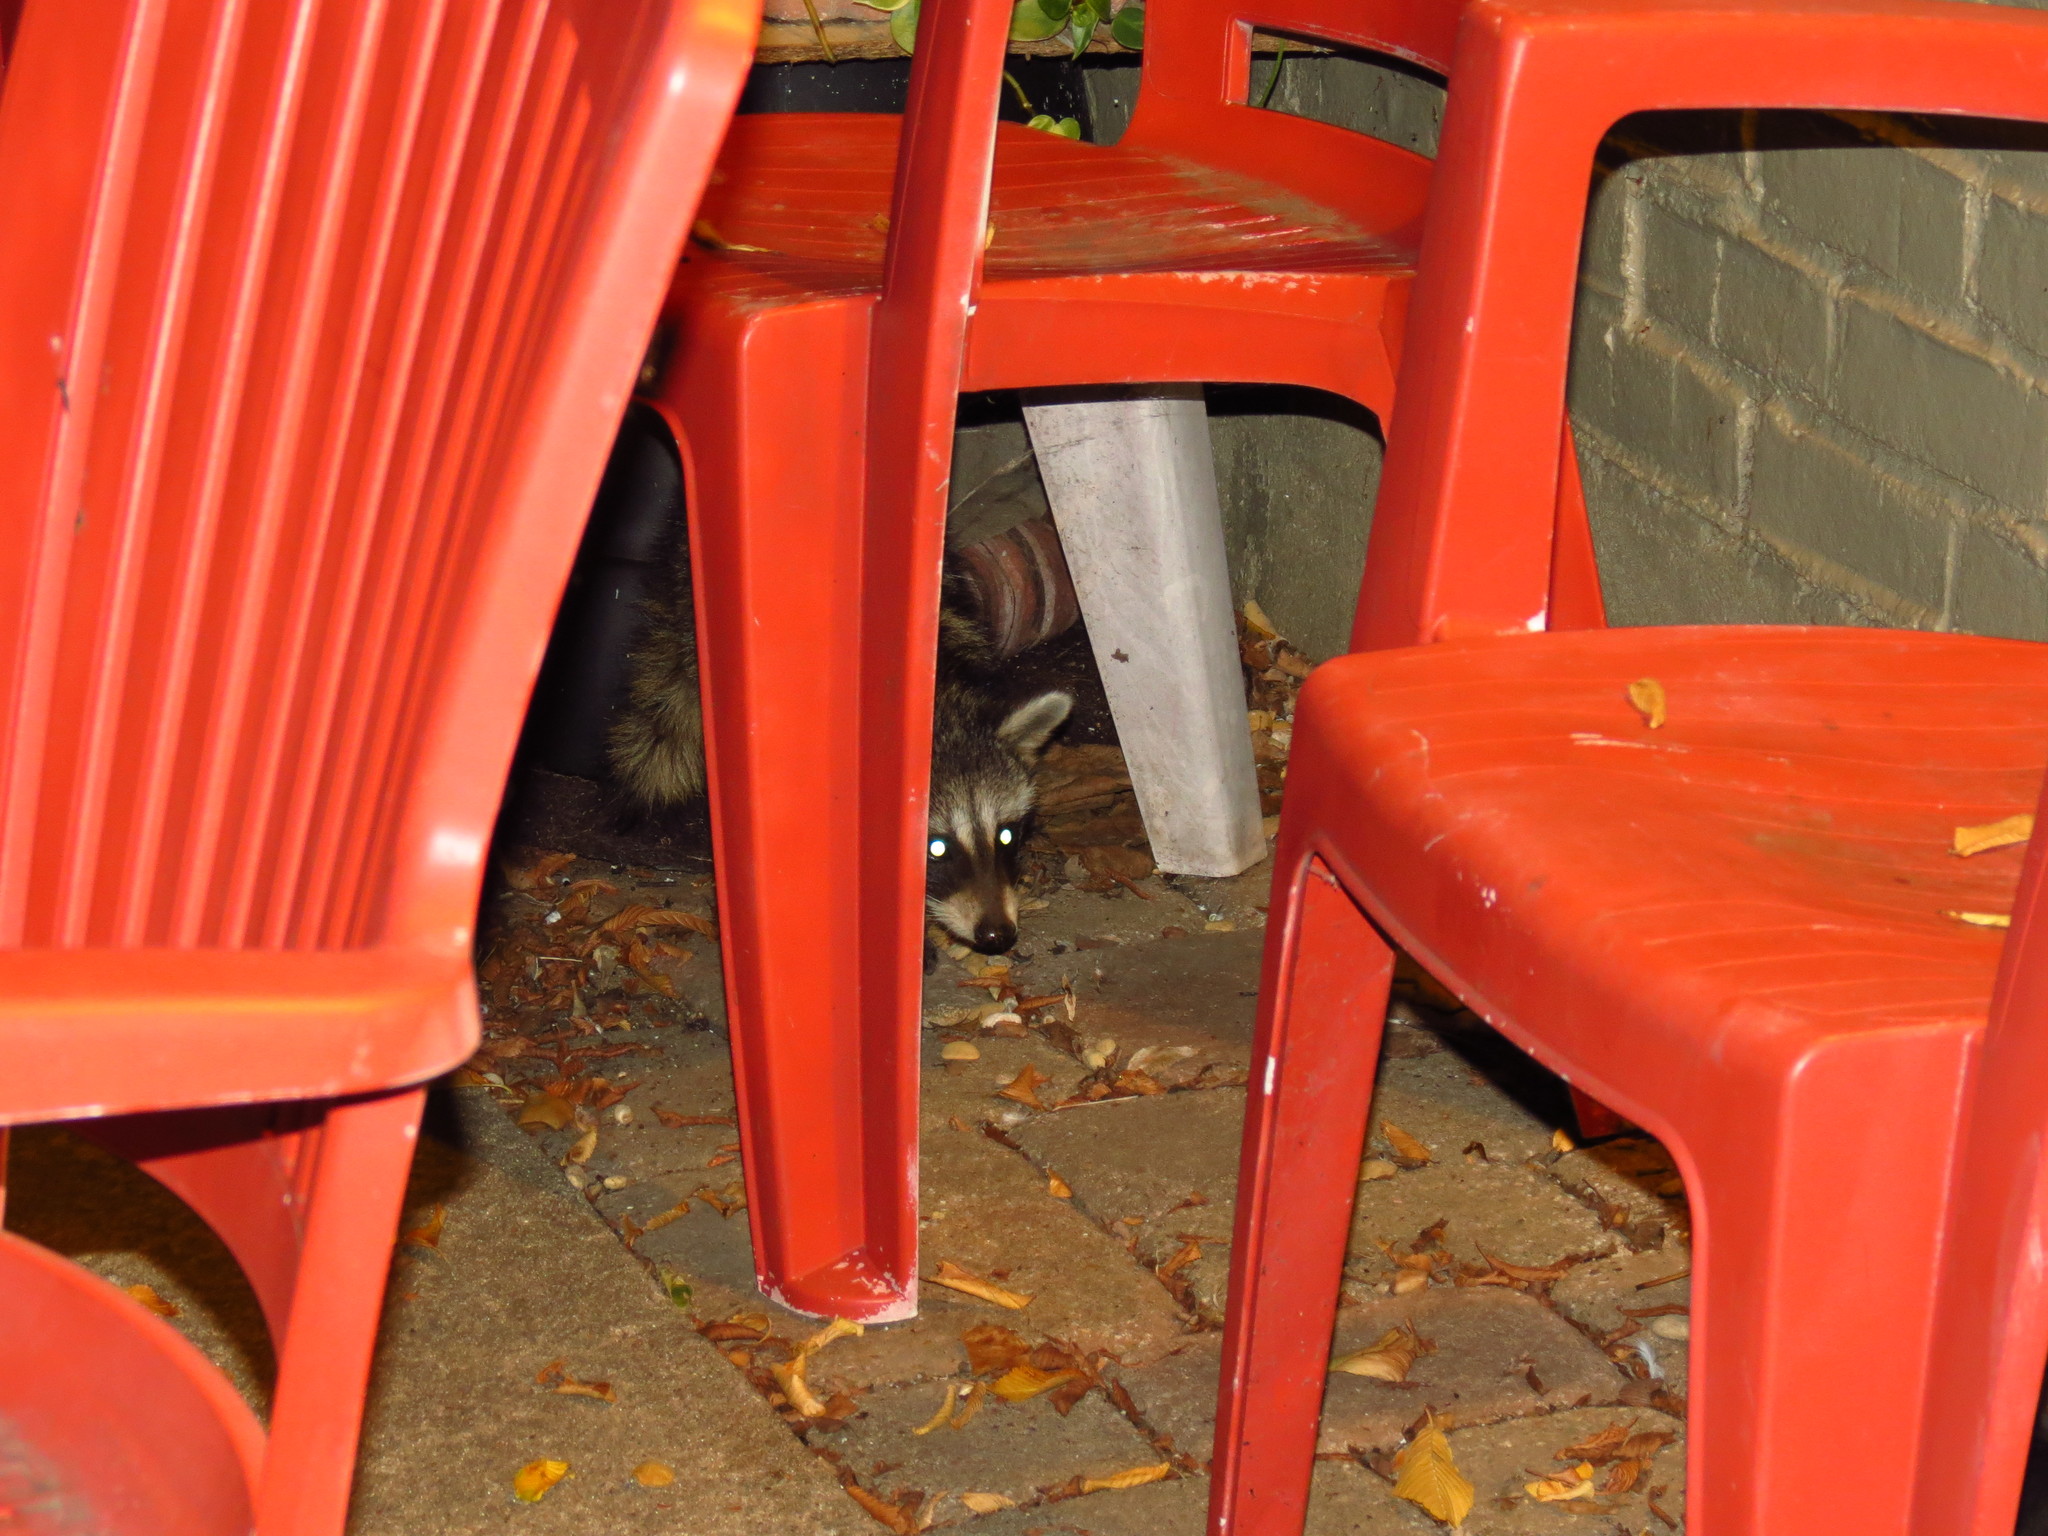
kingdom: Animalia
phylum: Chordata
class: Mammalia
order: Carnivora
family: Procyonidae
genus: Procyon
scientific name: Procyon lotor
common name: Raccoon
